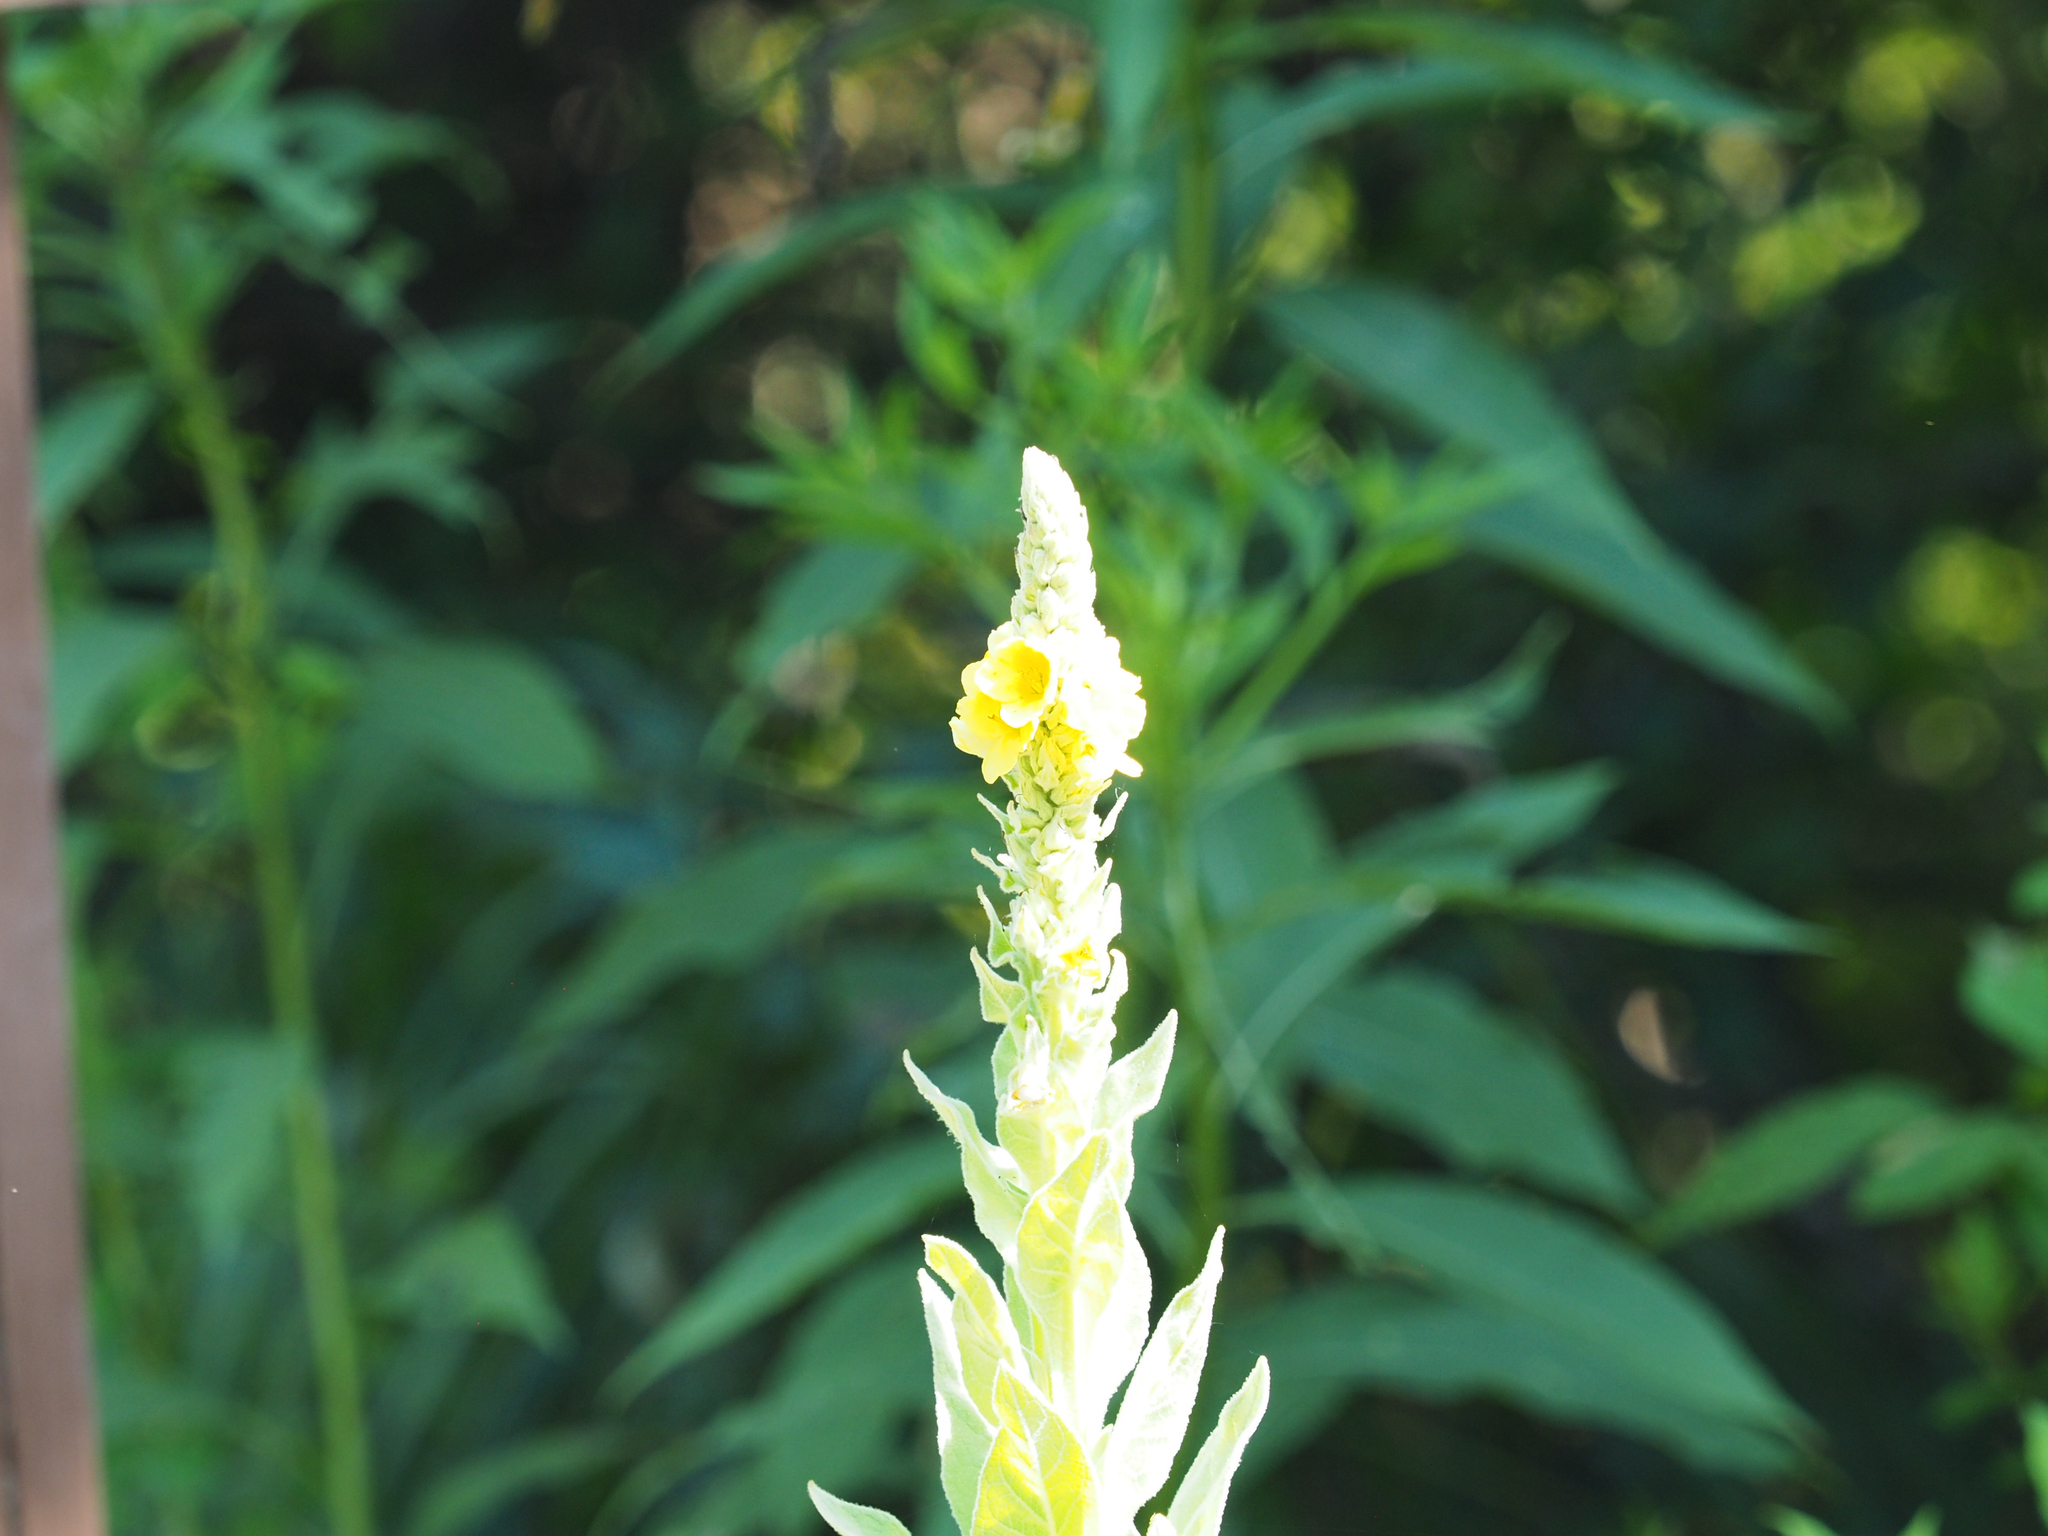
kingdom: Plantae
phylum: Tracheophyta
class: Magnoliopsida
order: Lamiales
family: Scrophulariaceae
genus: Verbascum
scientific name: Verbascum thapsus
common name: Common mullein
